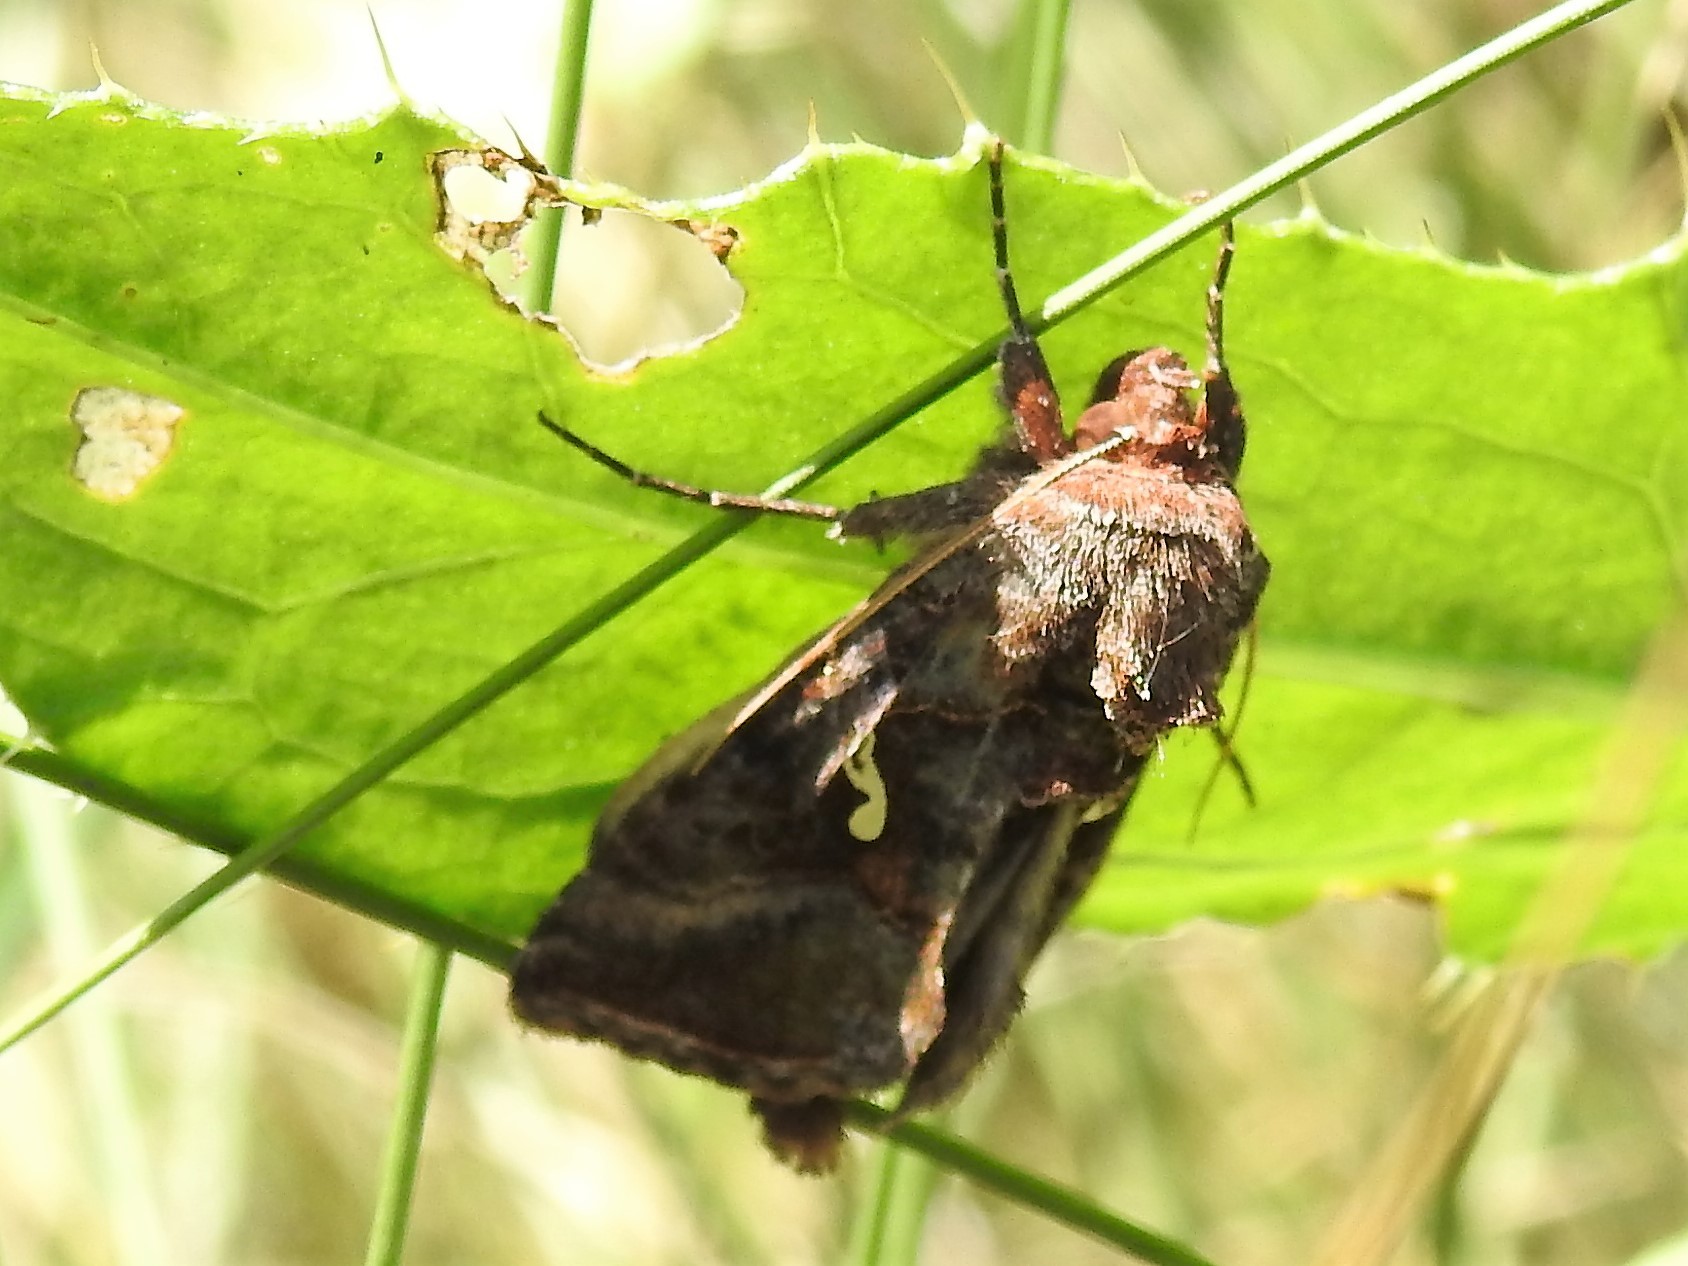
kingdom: Animalia
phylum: Arthropoda
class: Insecta
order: Lepidoptera
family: Noctuidae
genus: Autographa
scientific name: Autographa precationis
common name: Common looper moth
